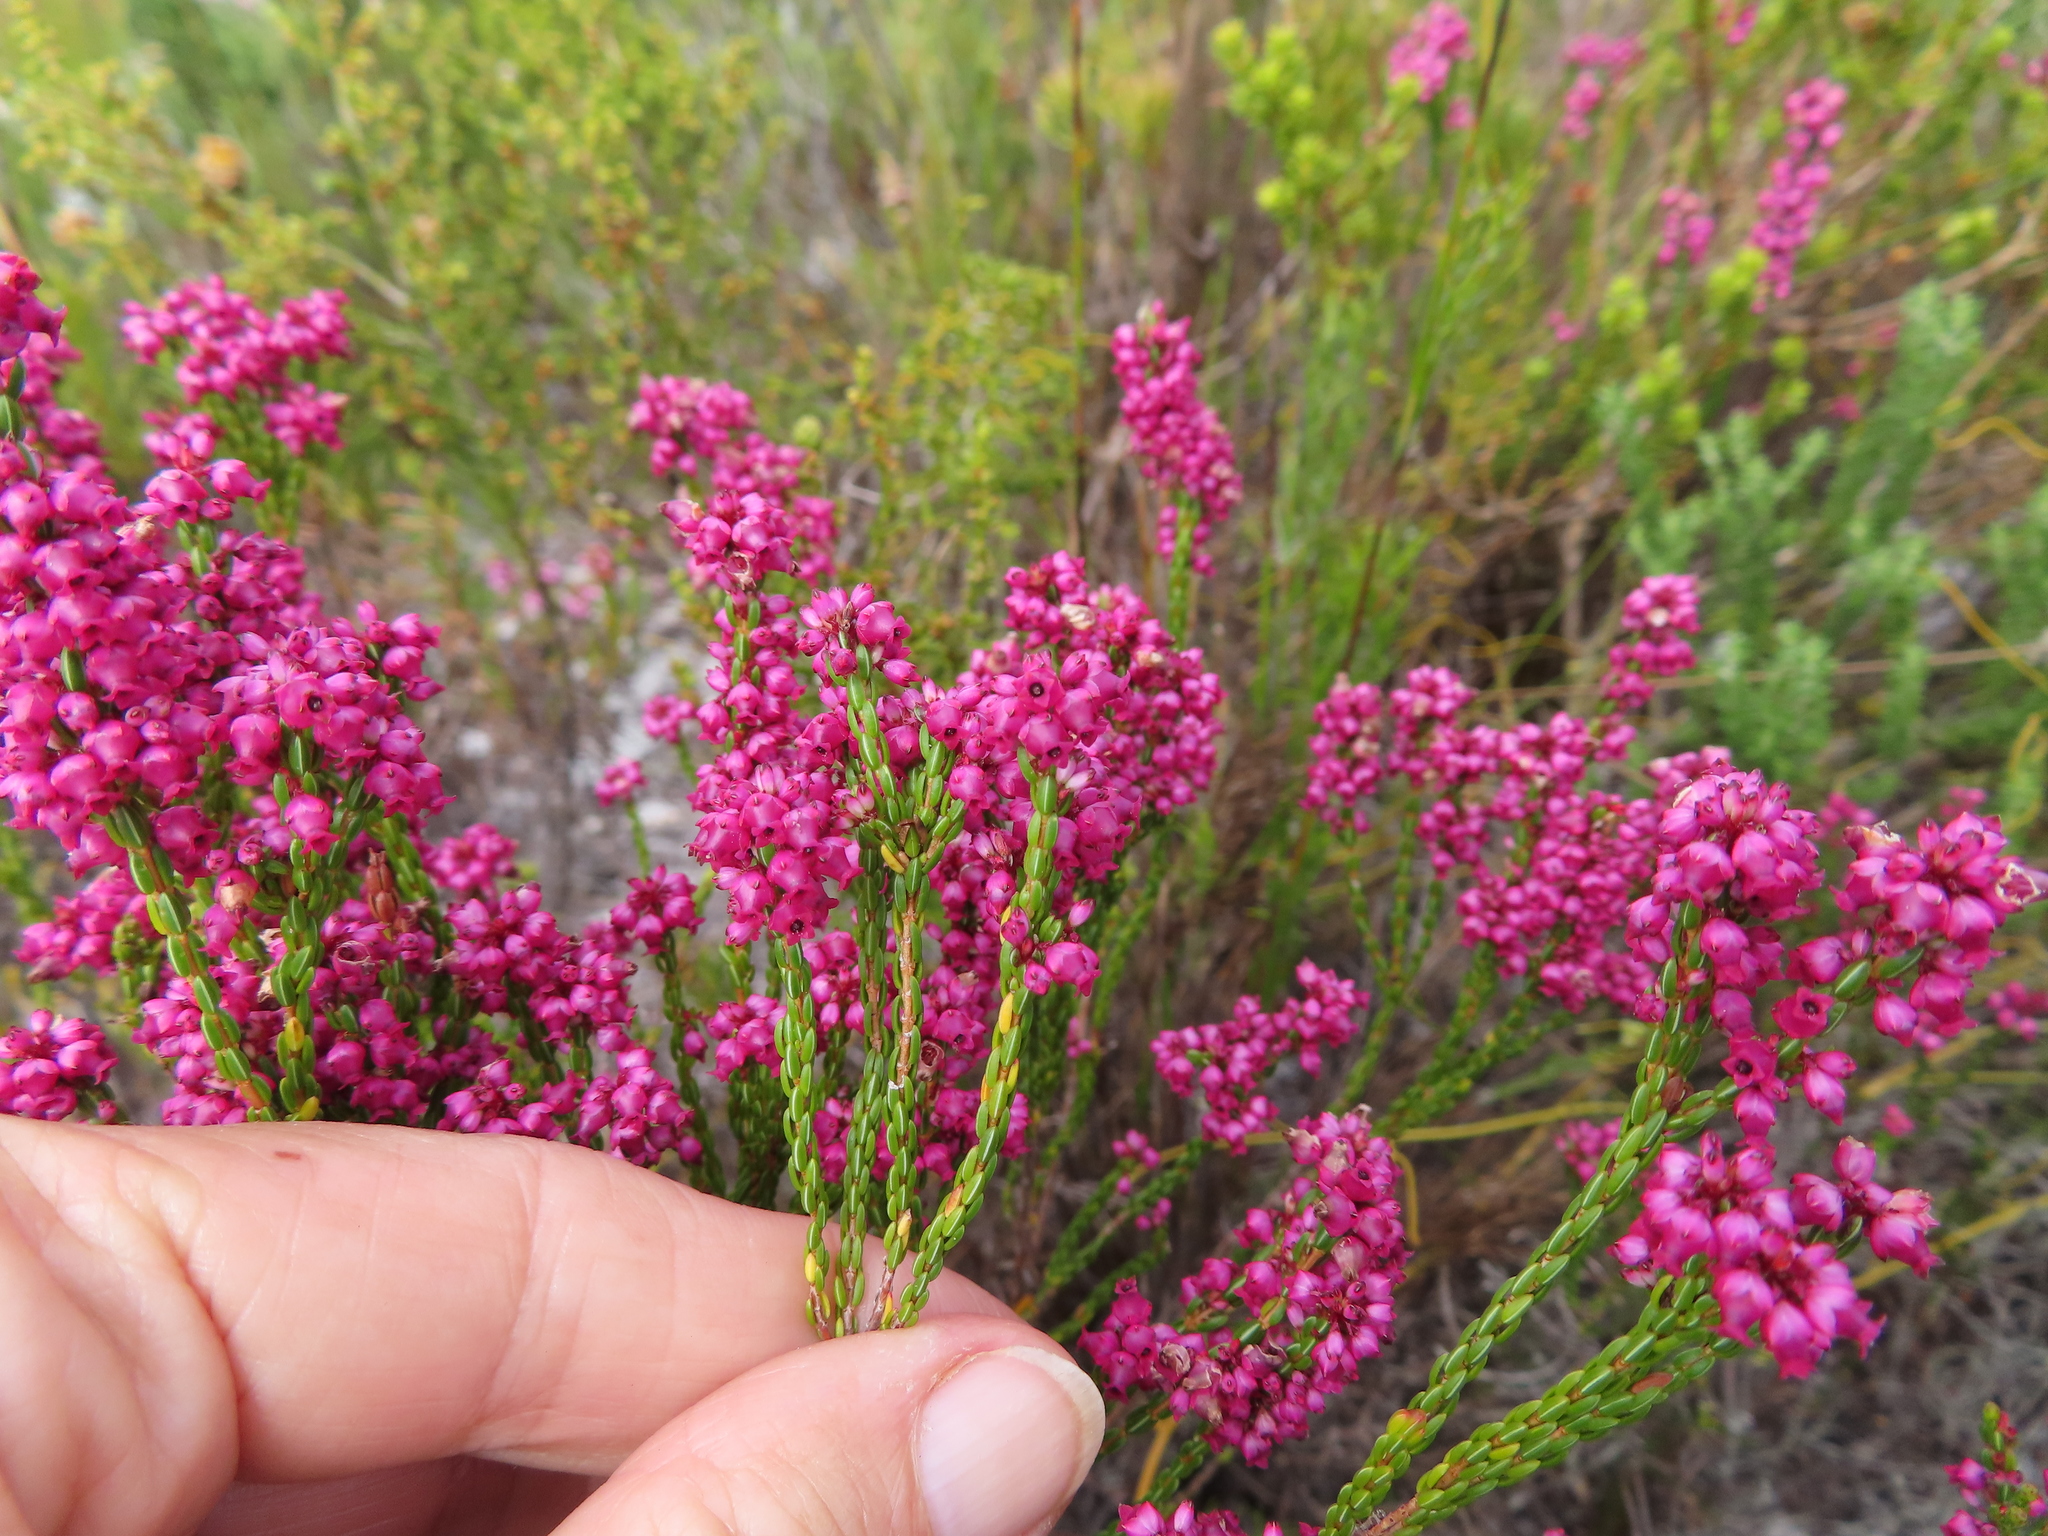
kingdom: Plantae
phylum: Tracheophyta
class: Magnoliopsida
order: Ericales
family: Ericaceae
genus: Erica
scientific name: Erica rhopalantha
